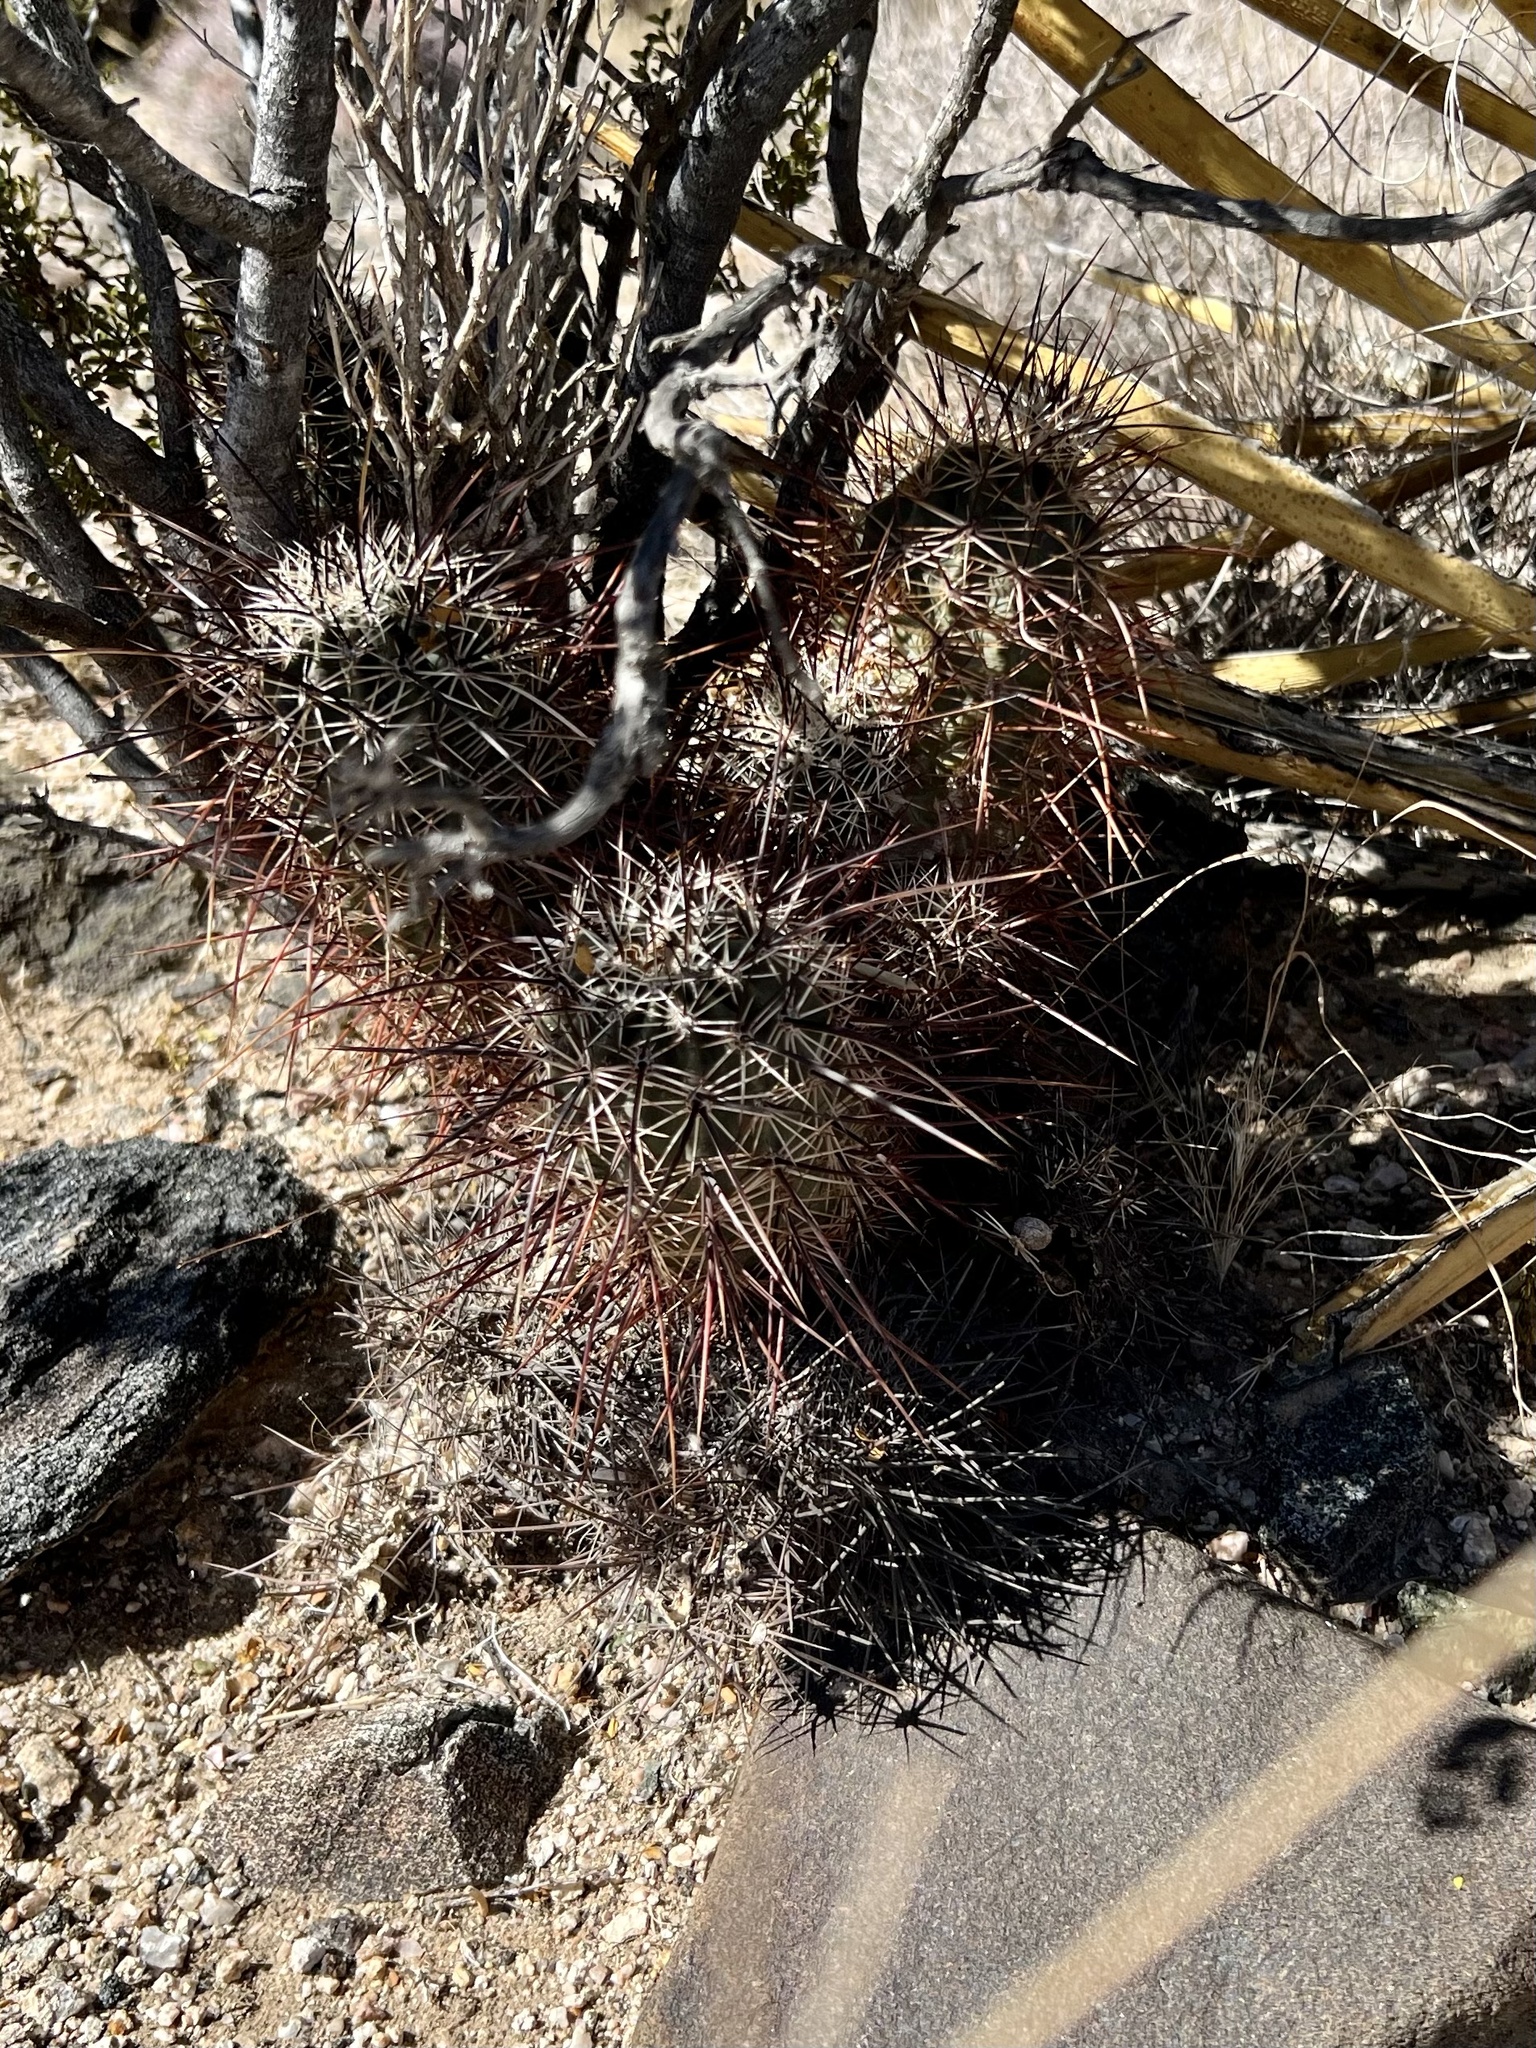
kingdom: Plantae
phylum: Tracheophyta
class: Magnoliopsida
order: Caryophyllales
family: Cactaceae
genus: Echinocereus
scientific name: Echinocereus engelmannii
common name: Engelmann's hedgehog cactus
